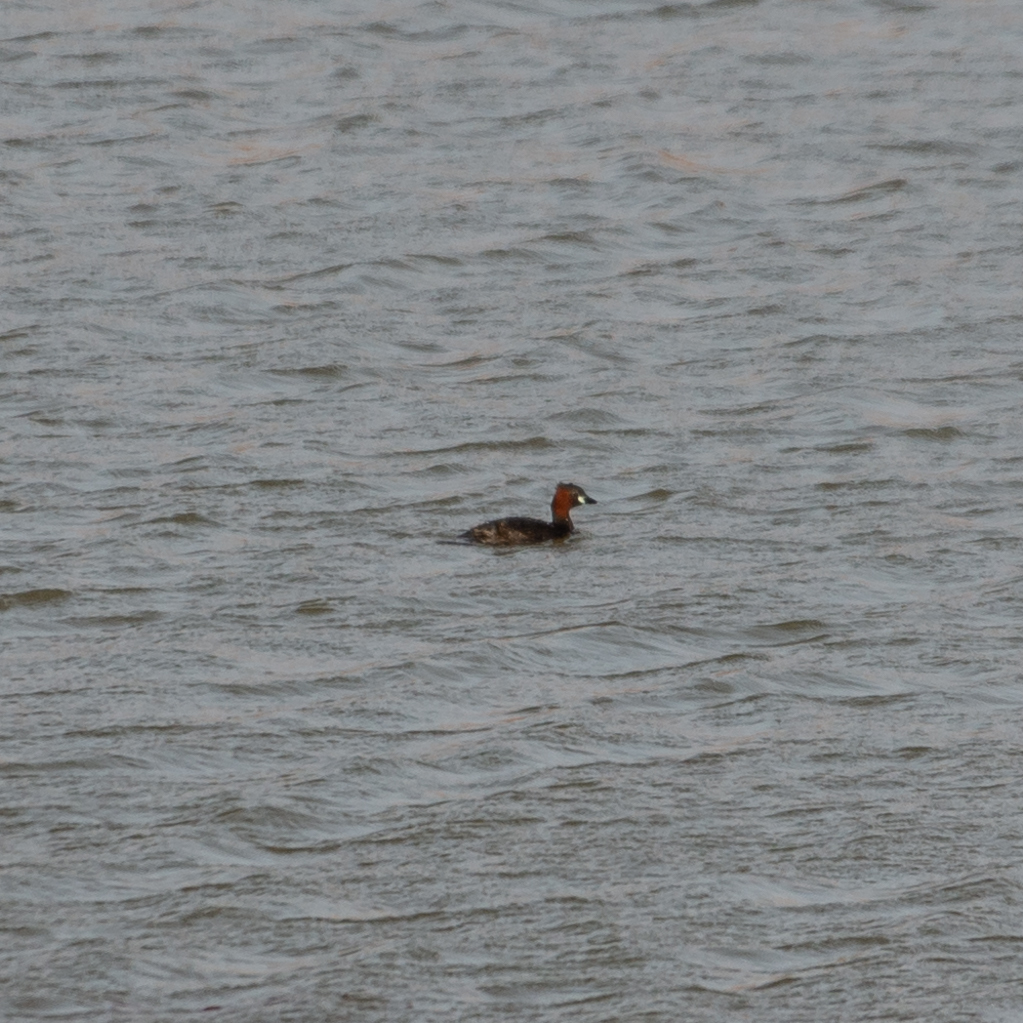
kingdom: Animalia
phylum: Chordata
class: Aves
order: Podicipediformes
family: Podicipedidae
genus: Tachybaptus
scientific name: Tachybaptus ruficollis
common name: Little grebe
